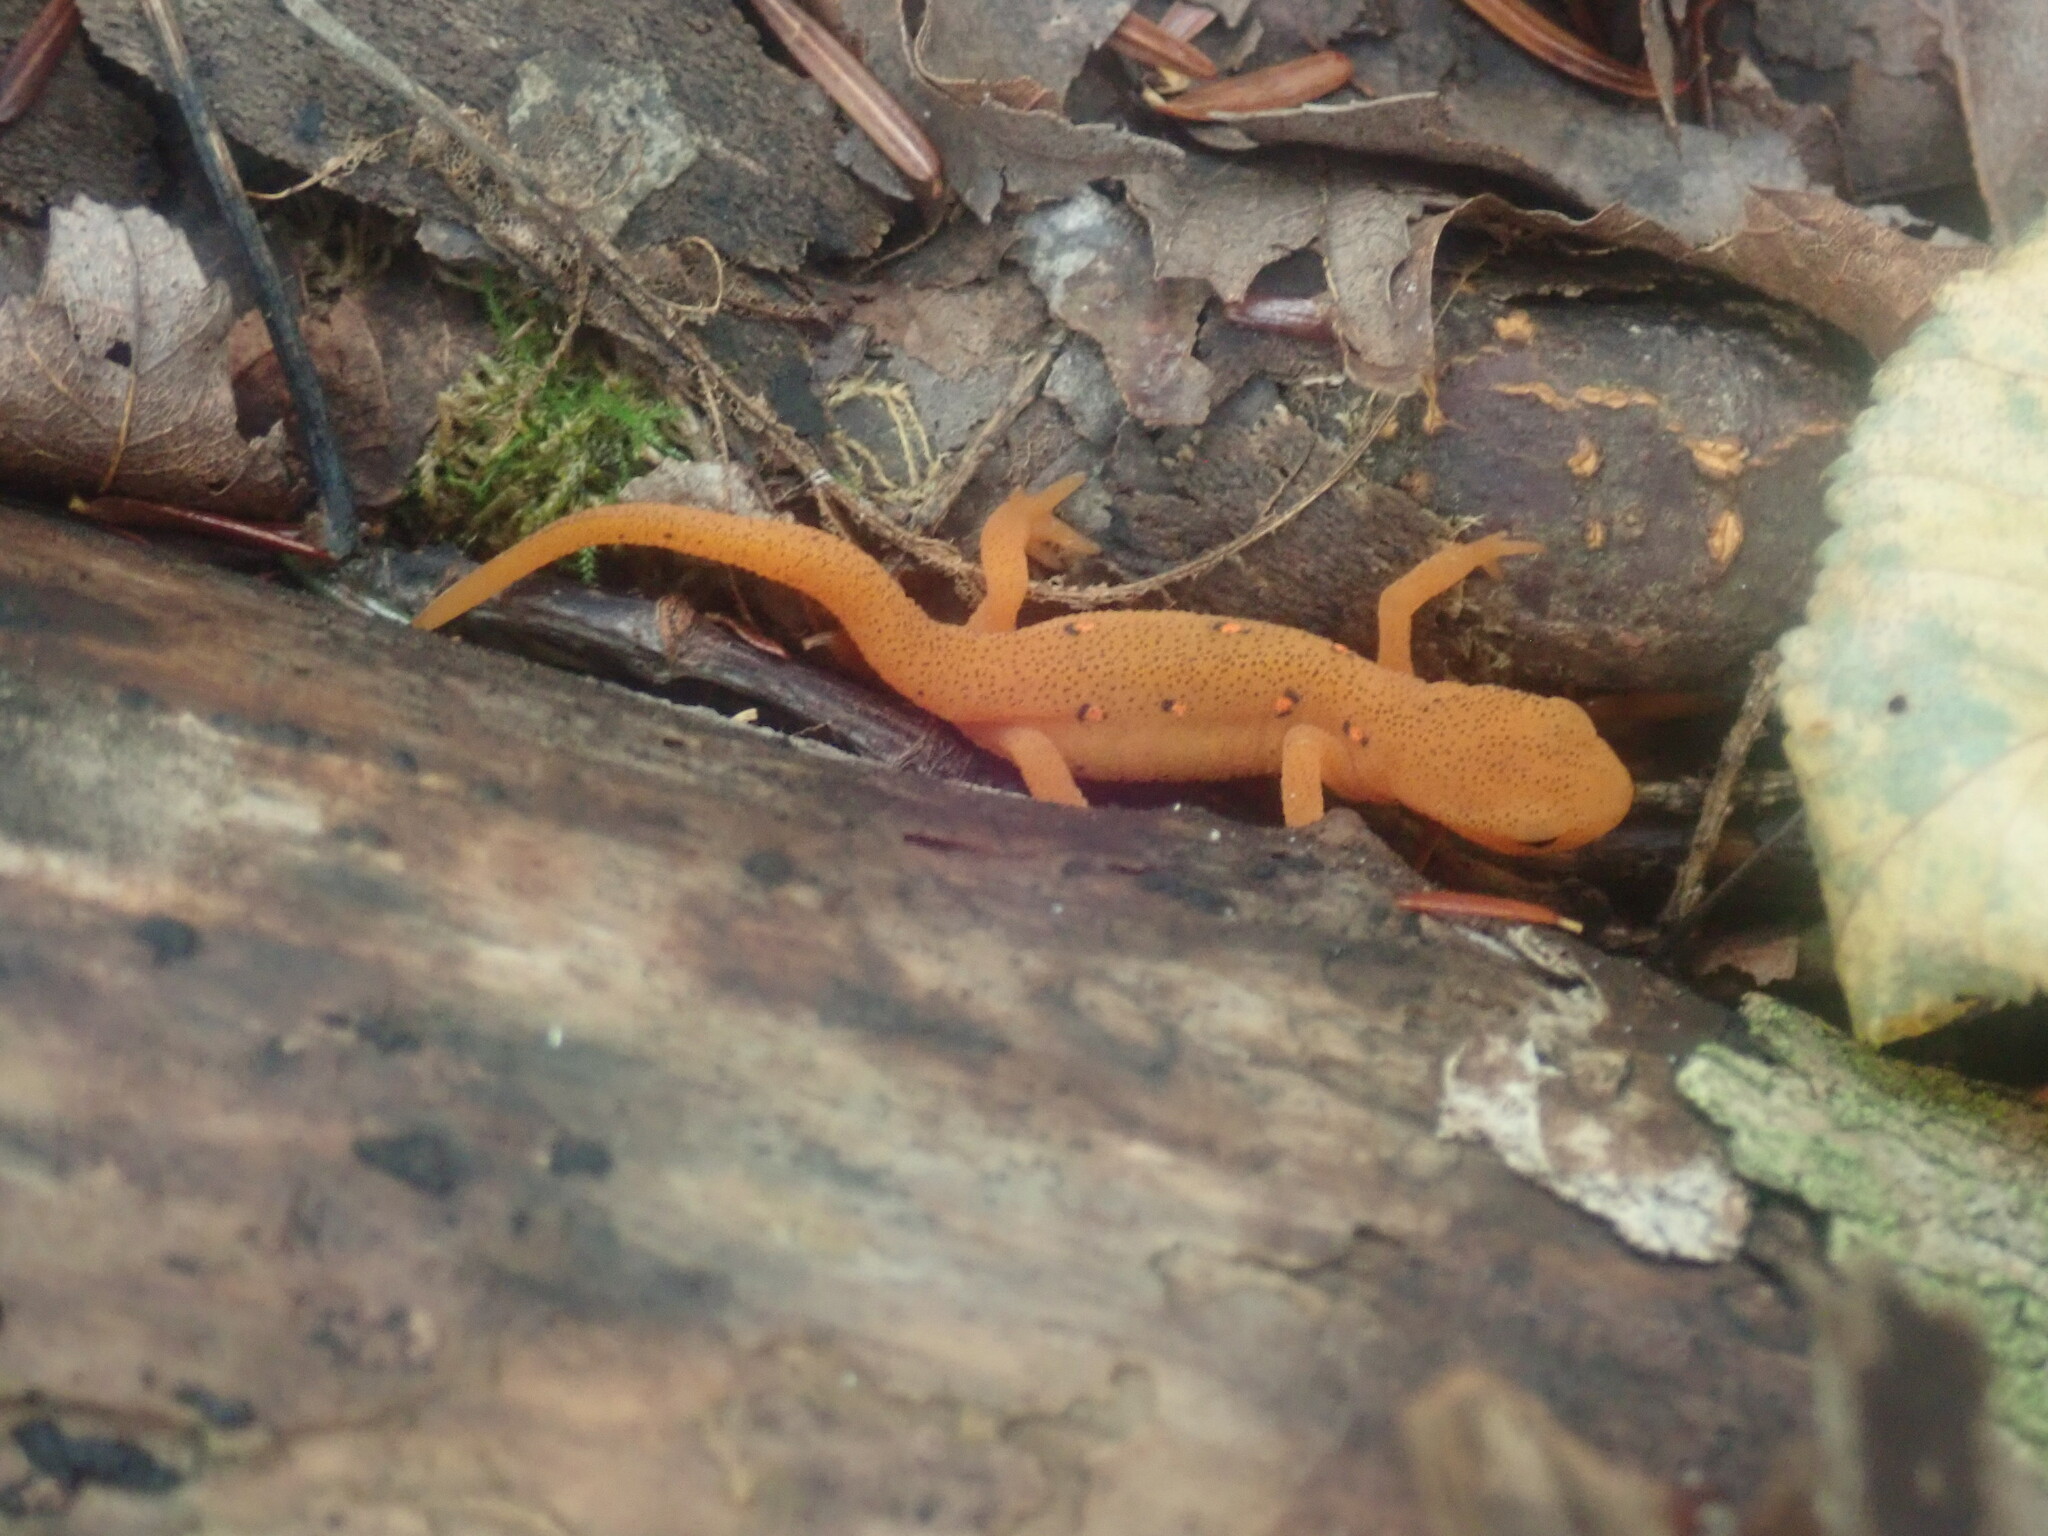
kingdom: Animalia
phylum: Chordata
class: Amphibia
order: Caudata
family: Salamandridae
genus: Notophthalmus
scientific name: Notophthalmus viridescens
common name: Eastern newt
